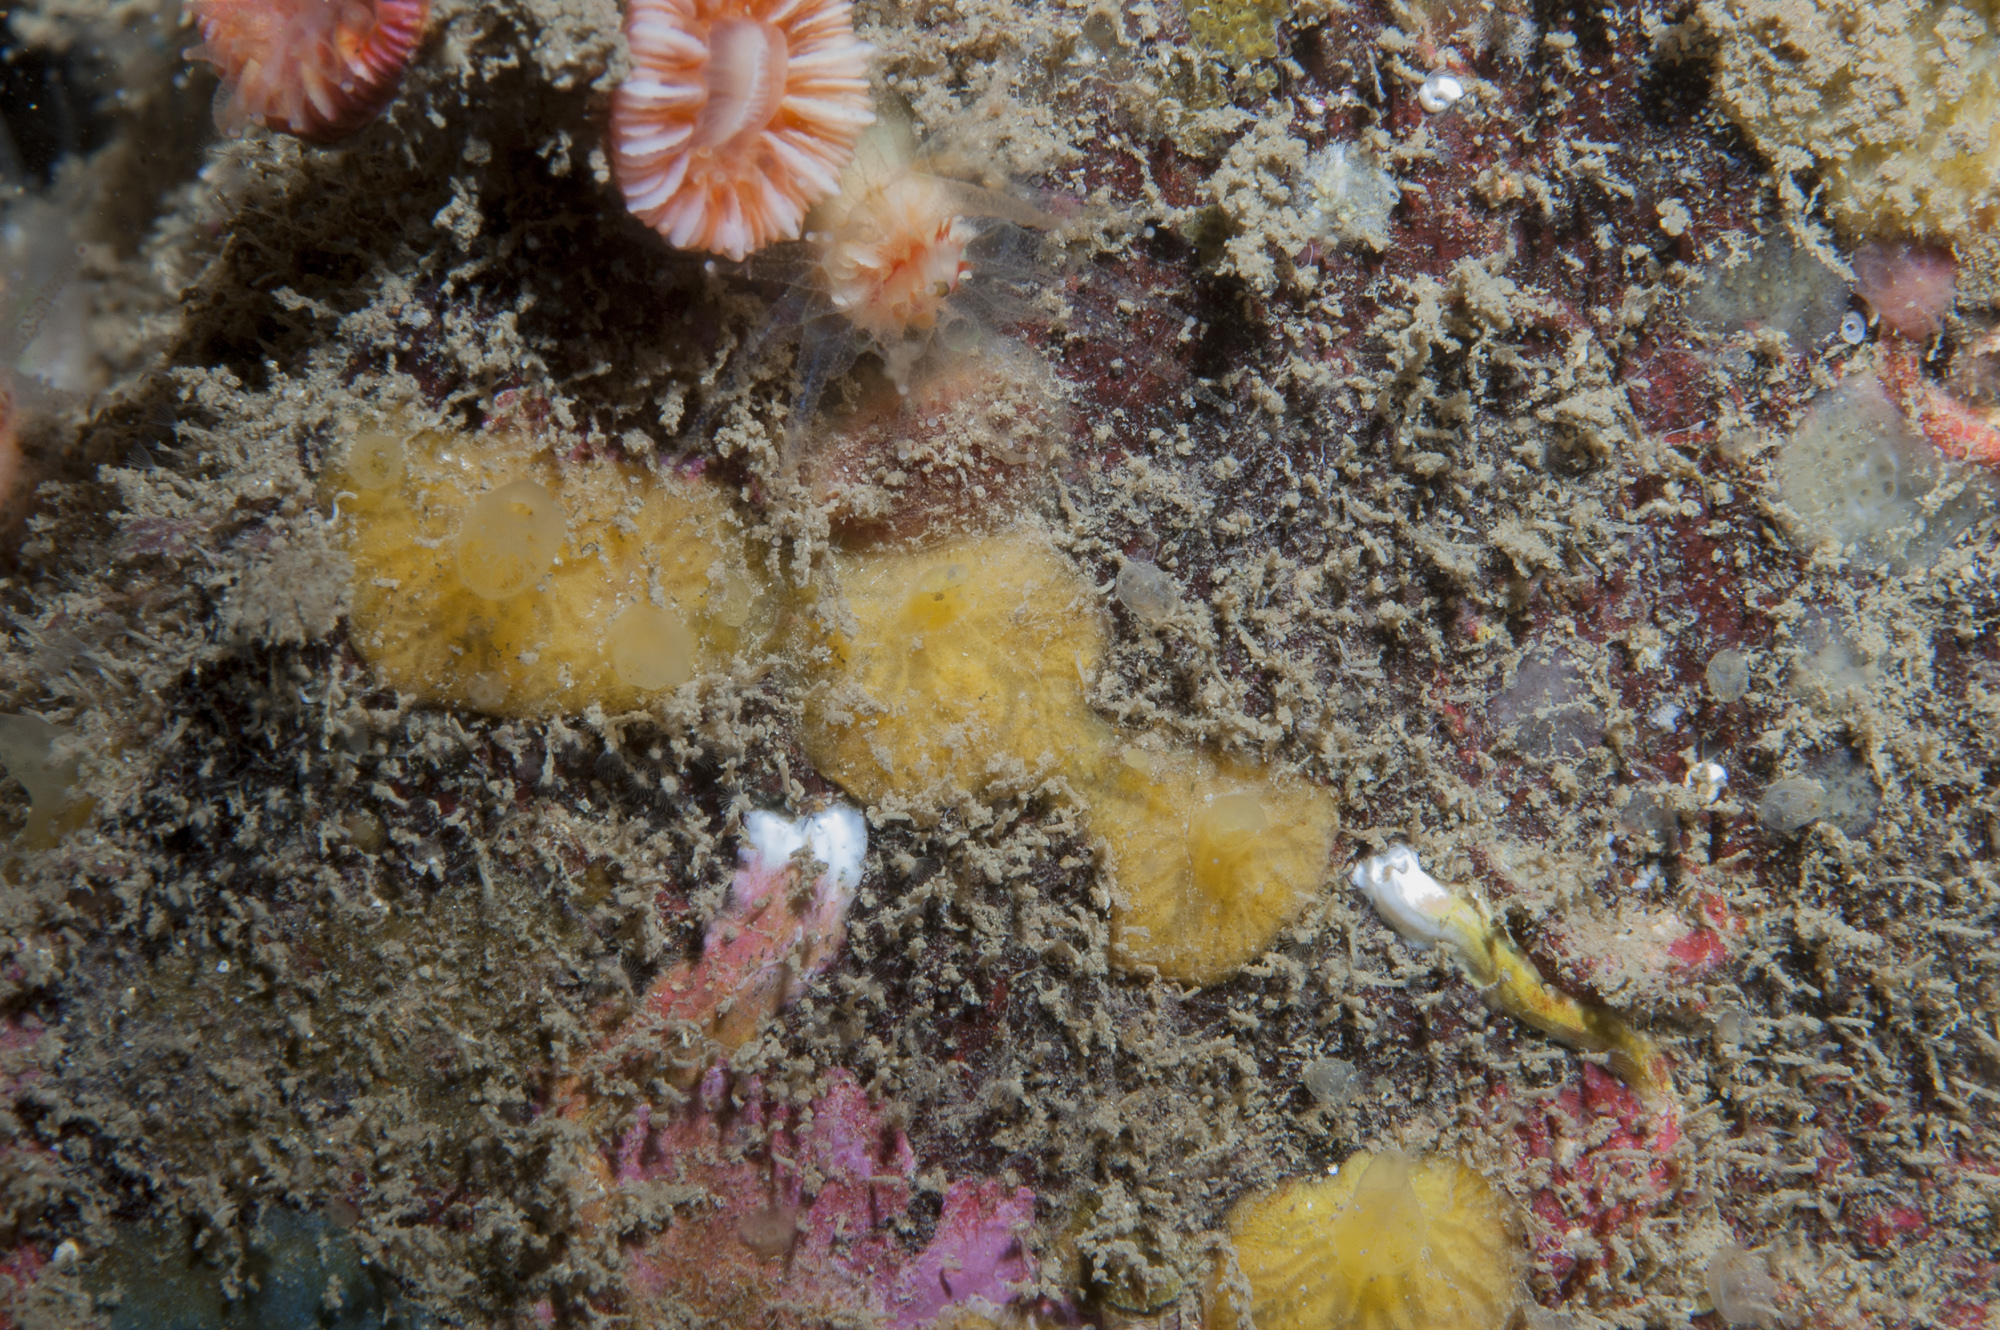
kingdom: Animalia
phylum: Porifera
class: Demospongiae
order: Poecilosclerida
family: Hymedesmiidae
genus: Hymedesmia
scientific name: Hymedesmia rathlinia
